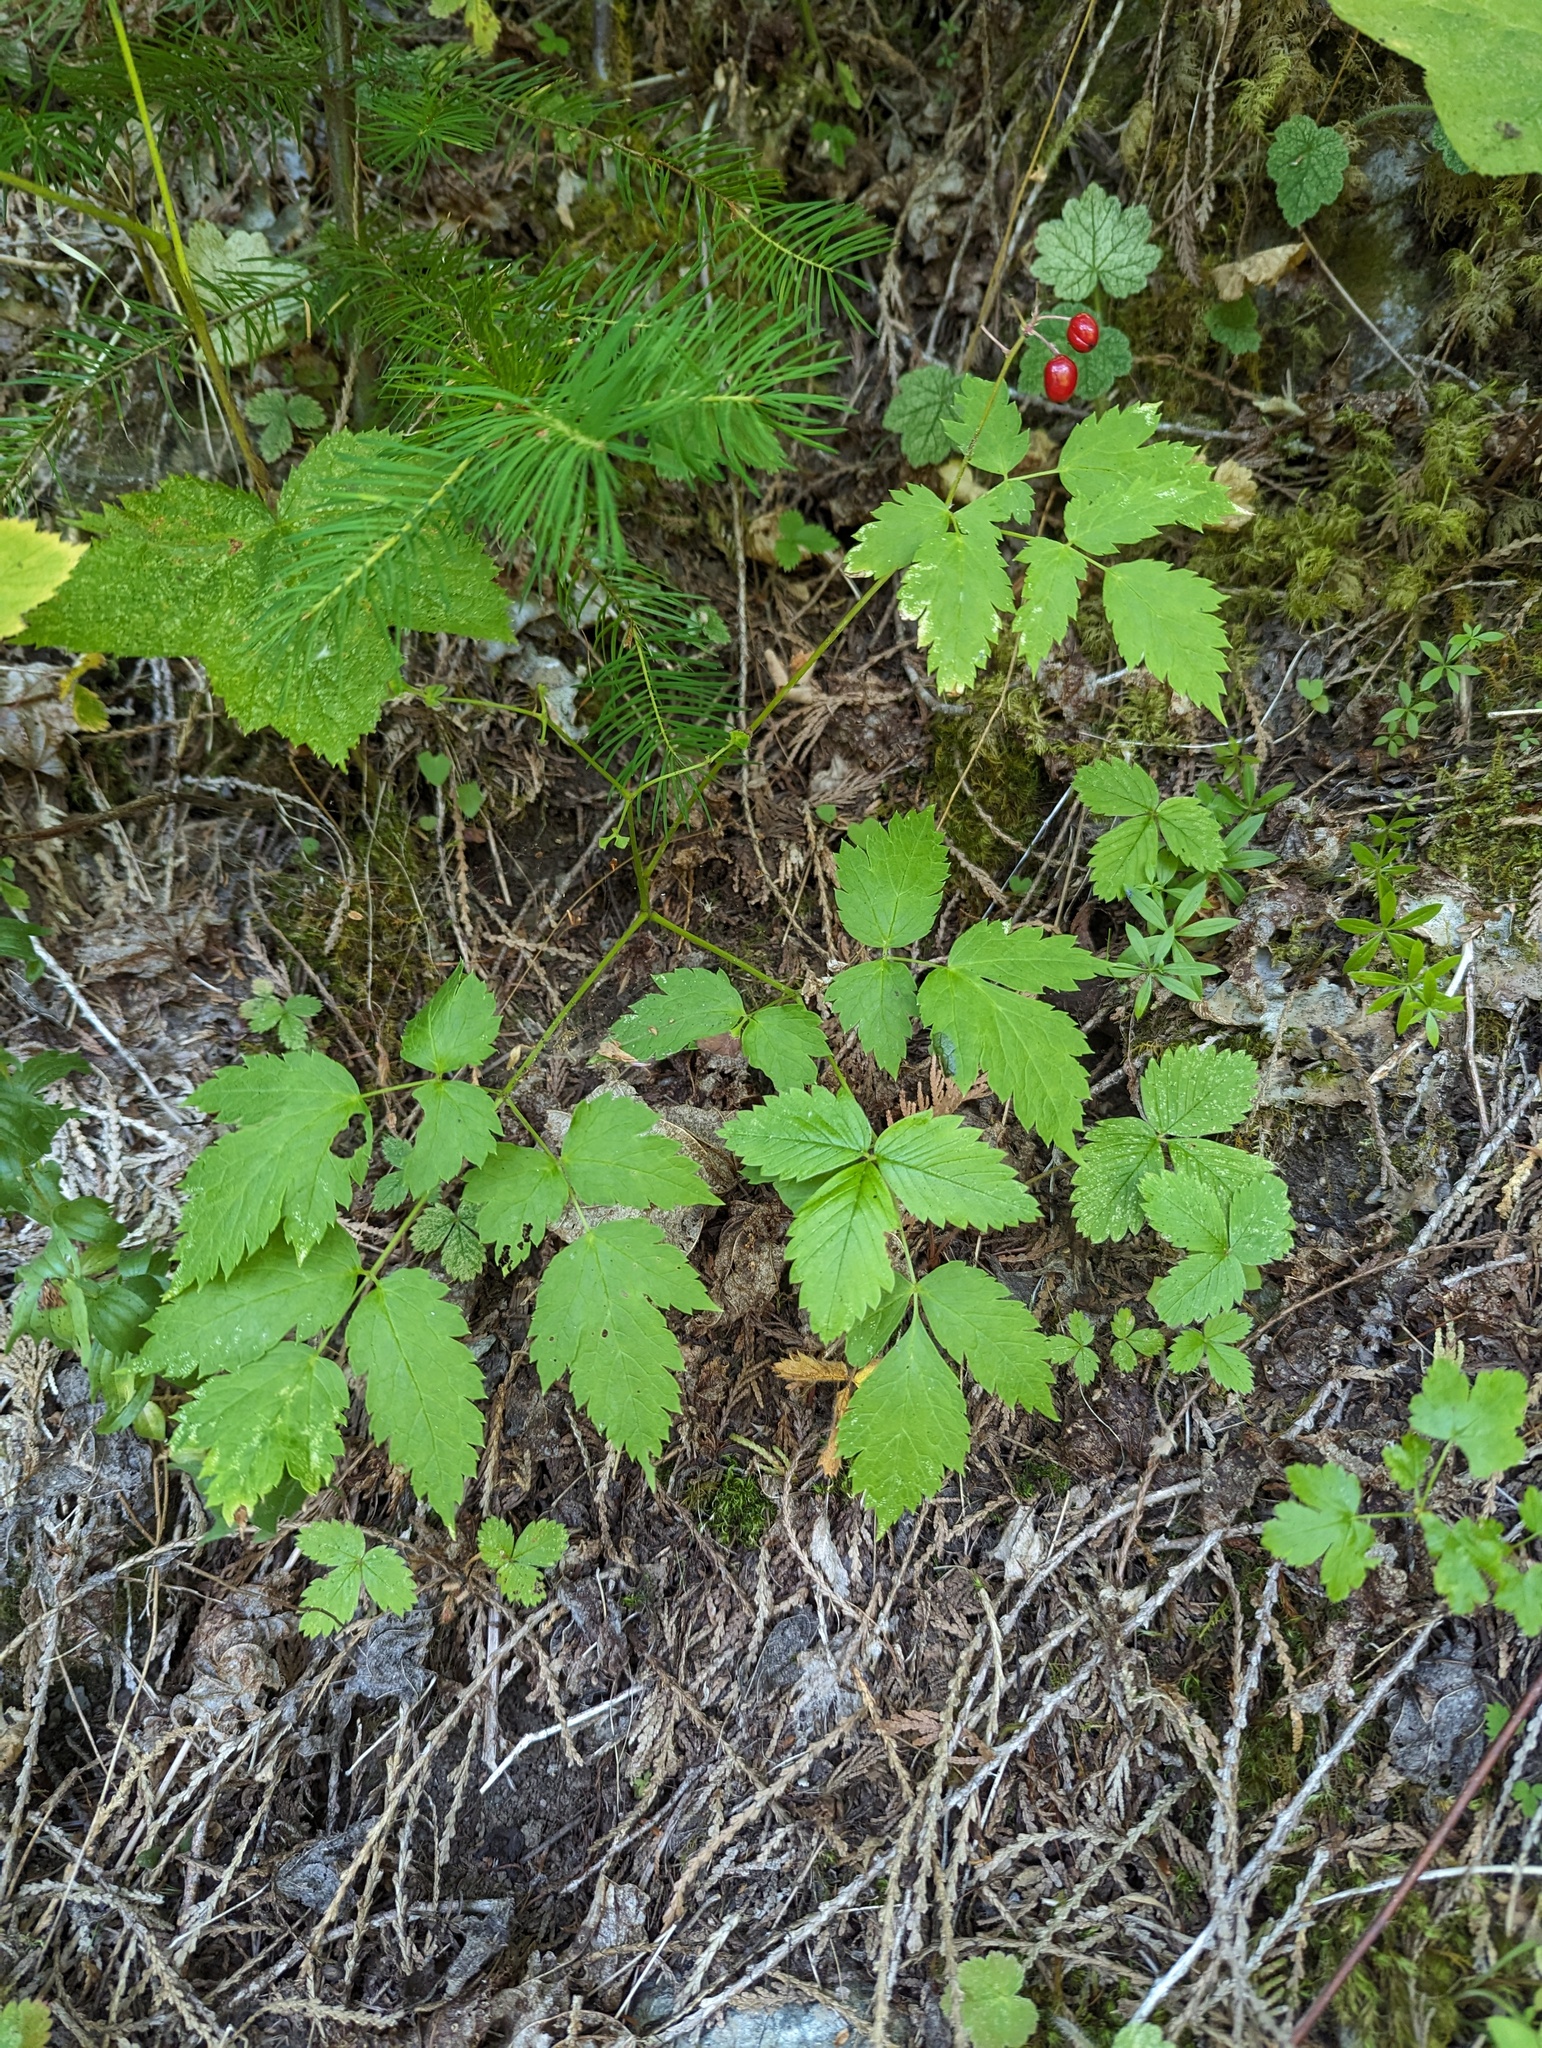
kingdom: Plantae
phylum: Tracheophyta
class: Magnoliopsida
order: Ranunculales
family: Ranunculaceae
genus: Actaea
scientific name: Actaea rubra
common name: Red baneberry
